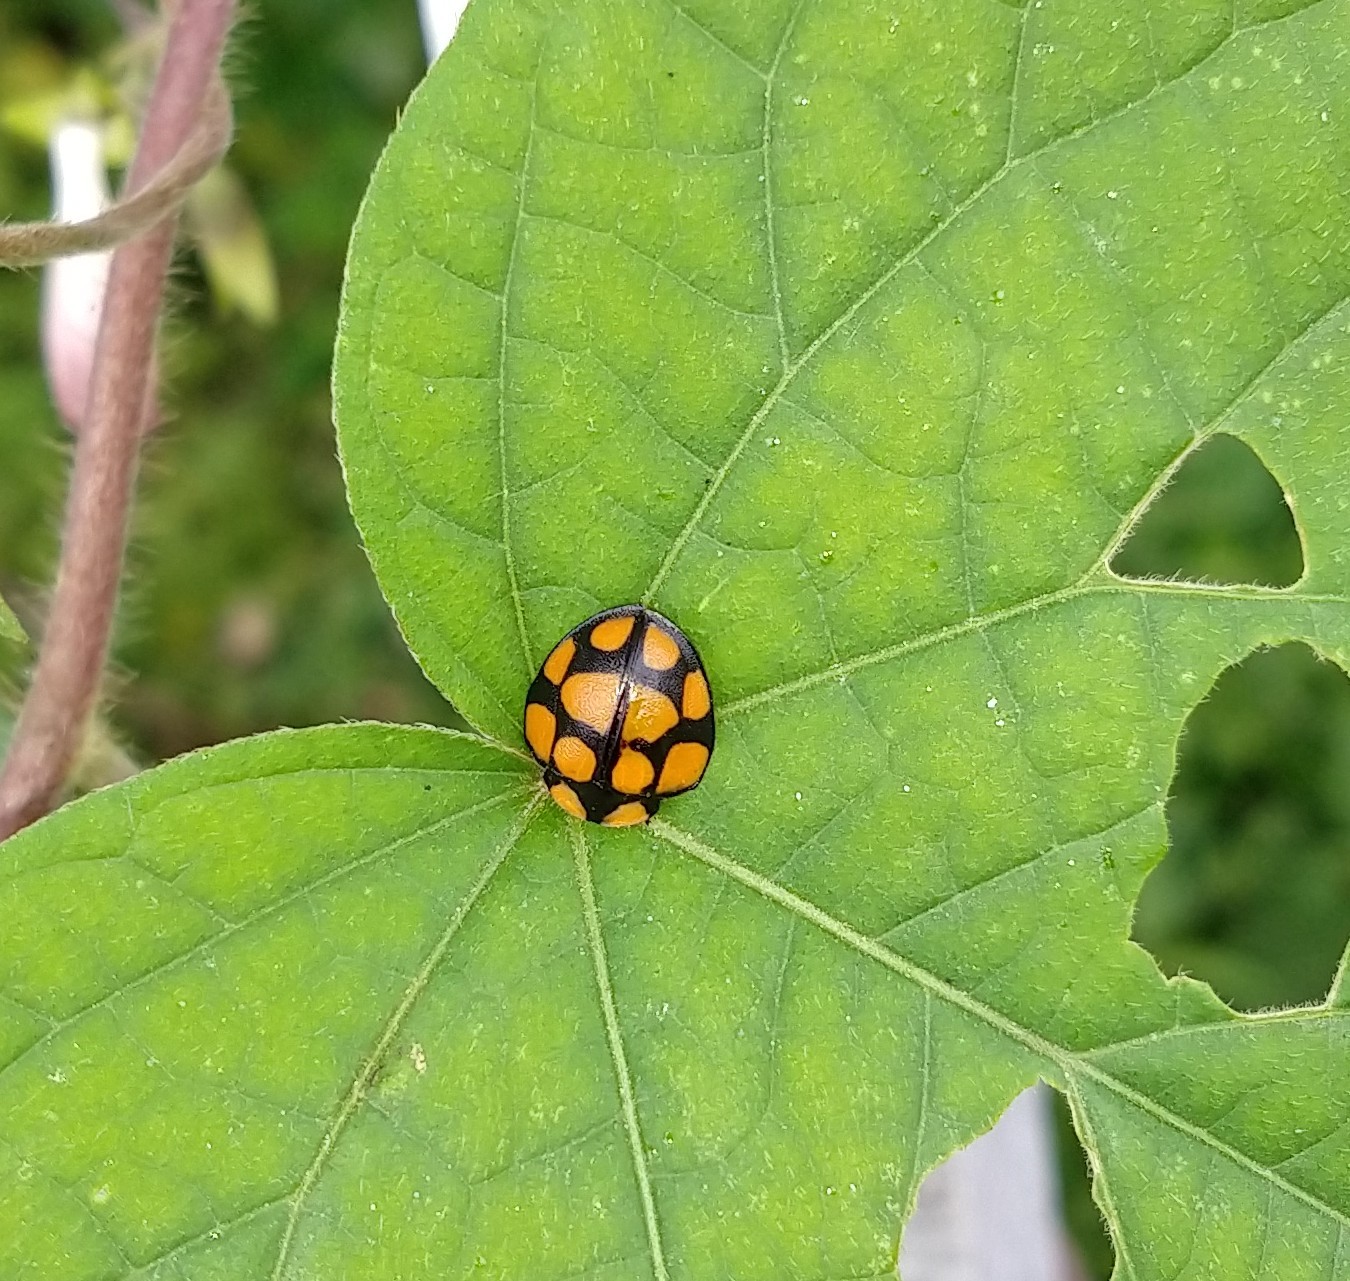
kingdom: Animalia
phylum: Arthropoda
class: Insecta
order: Coleoptera
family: Chrysomelidae
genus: Botanochara
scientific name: Botanochara decempustulata
